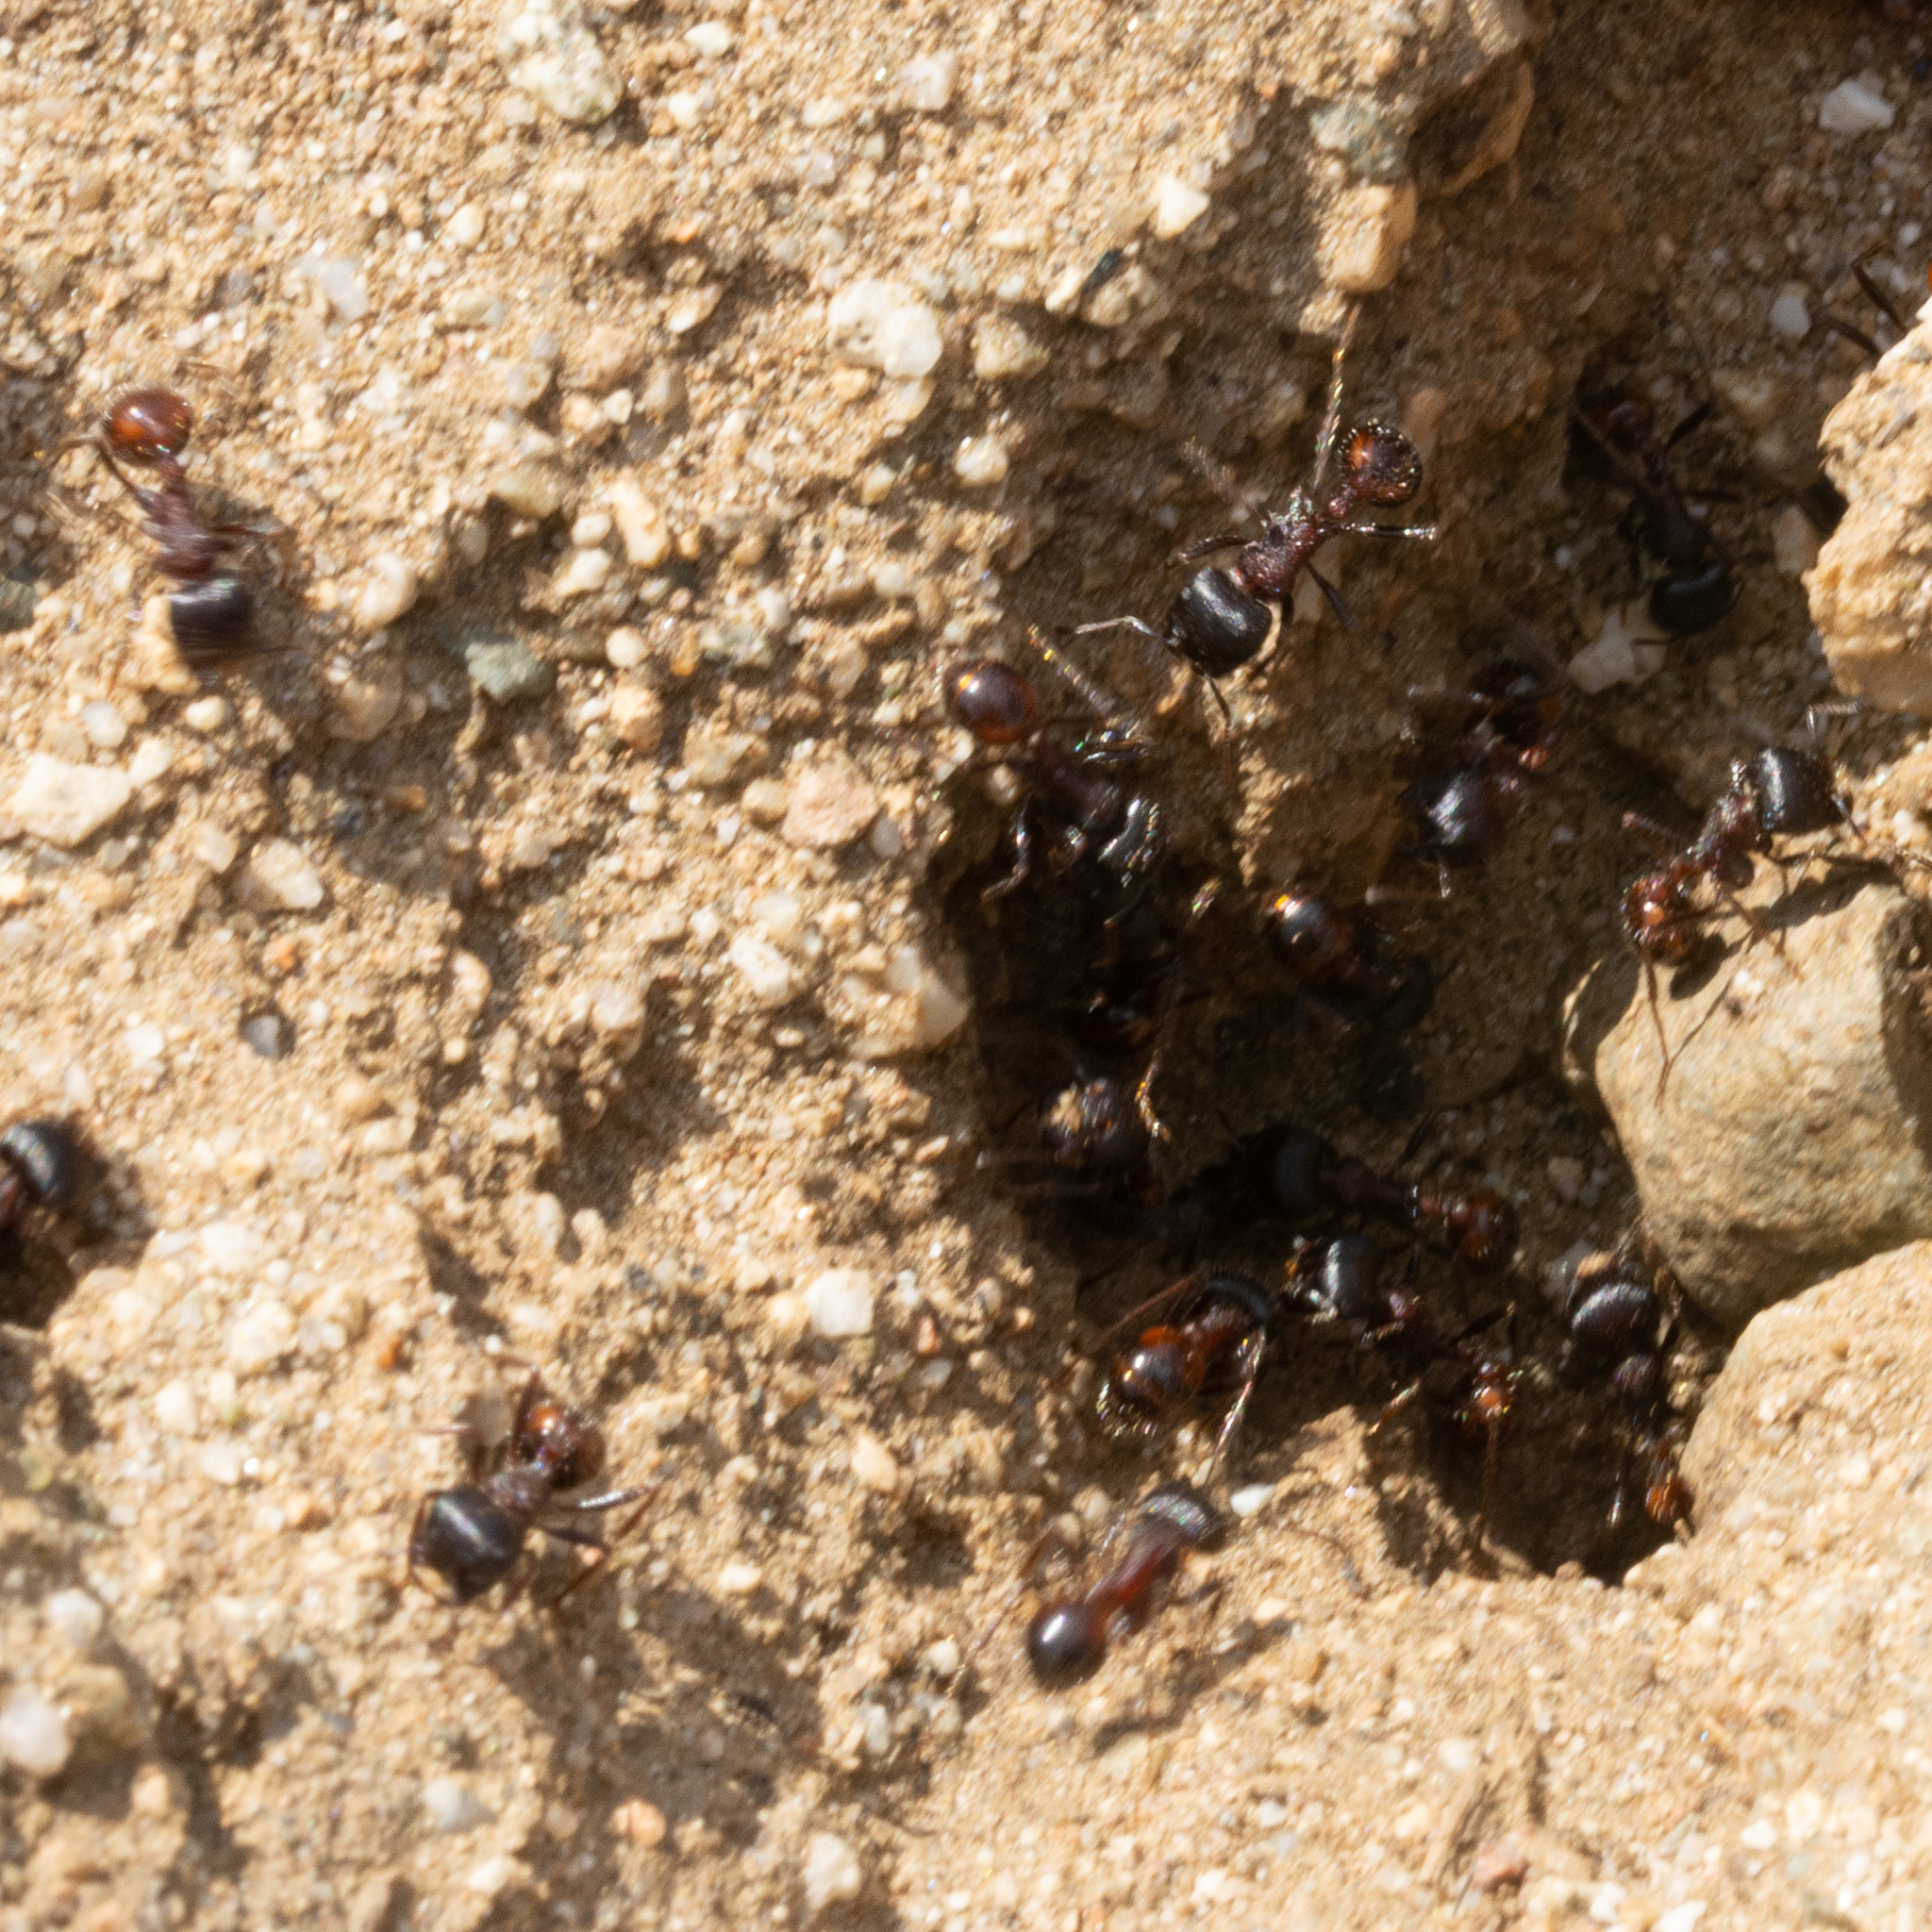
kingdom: Animalia
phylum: Arthropoda
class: Insecta
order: Hymenoptera
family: Formicidae
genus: Pogonomyrmex
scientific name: Pogonomyrmex rugosus
